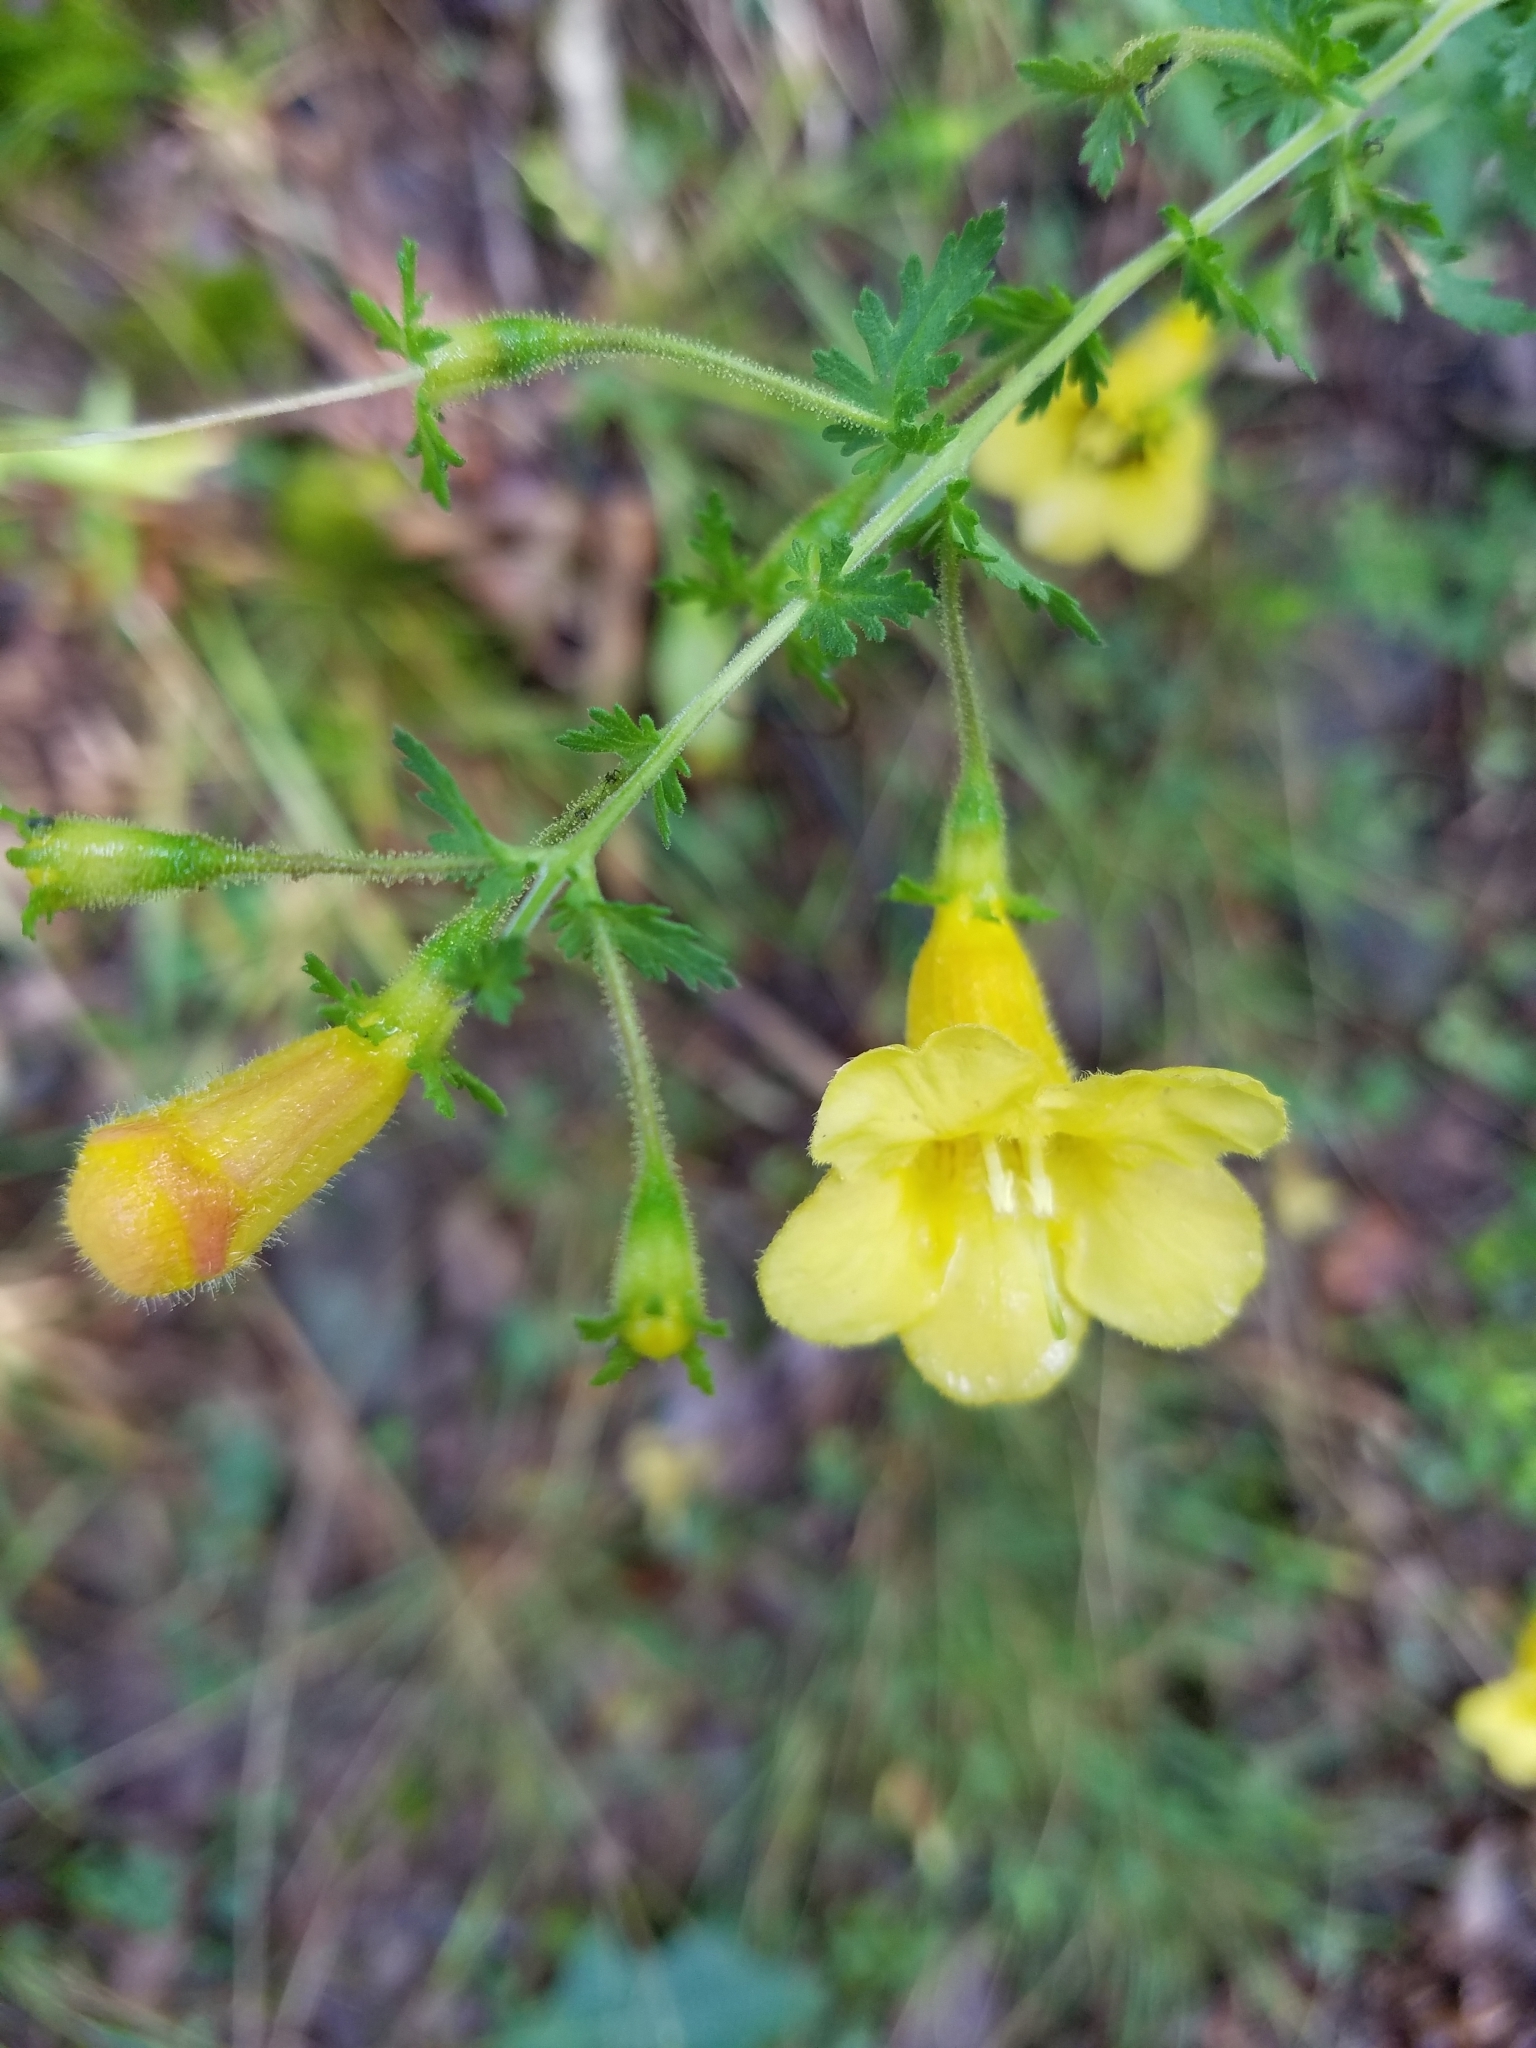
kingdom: Plantae
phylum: Tracheophyta
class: Magnoliopsida
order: Lamiales
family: Orobanchaceae
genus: Aureolaria
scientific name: Aureolaria pedicularia
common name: Annual false foxglove
